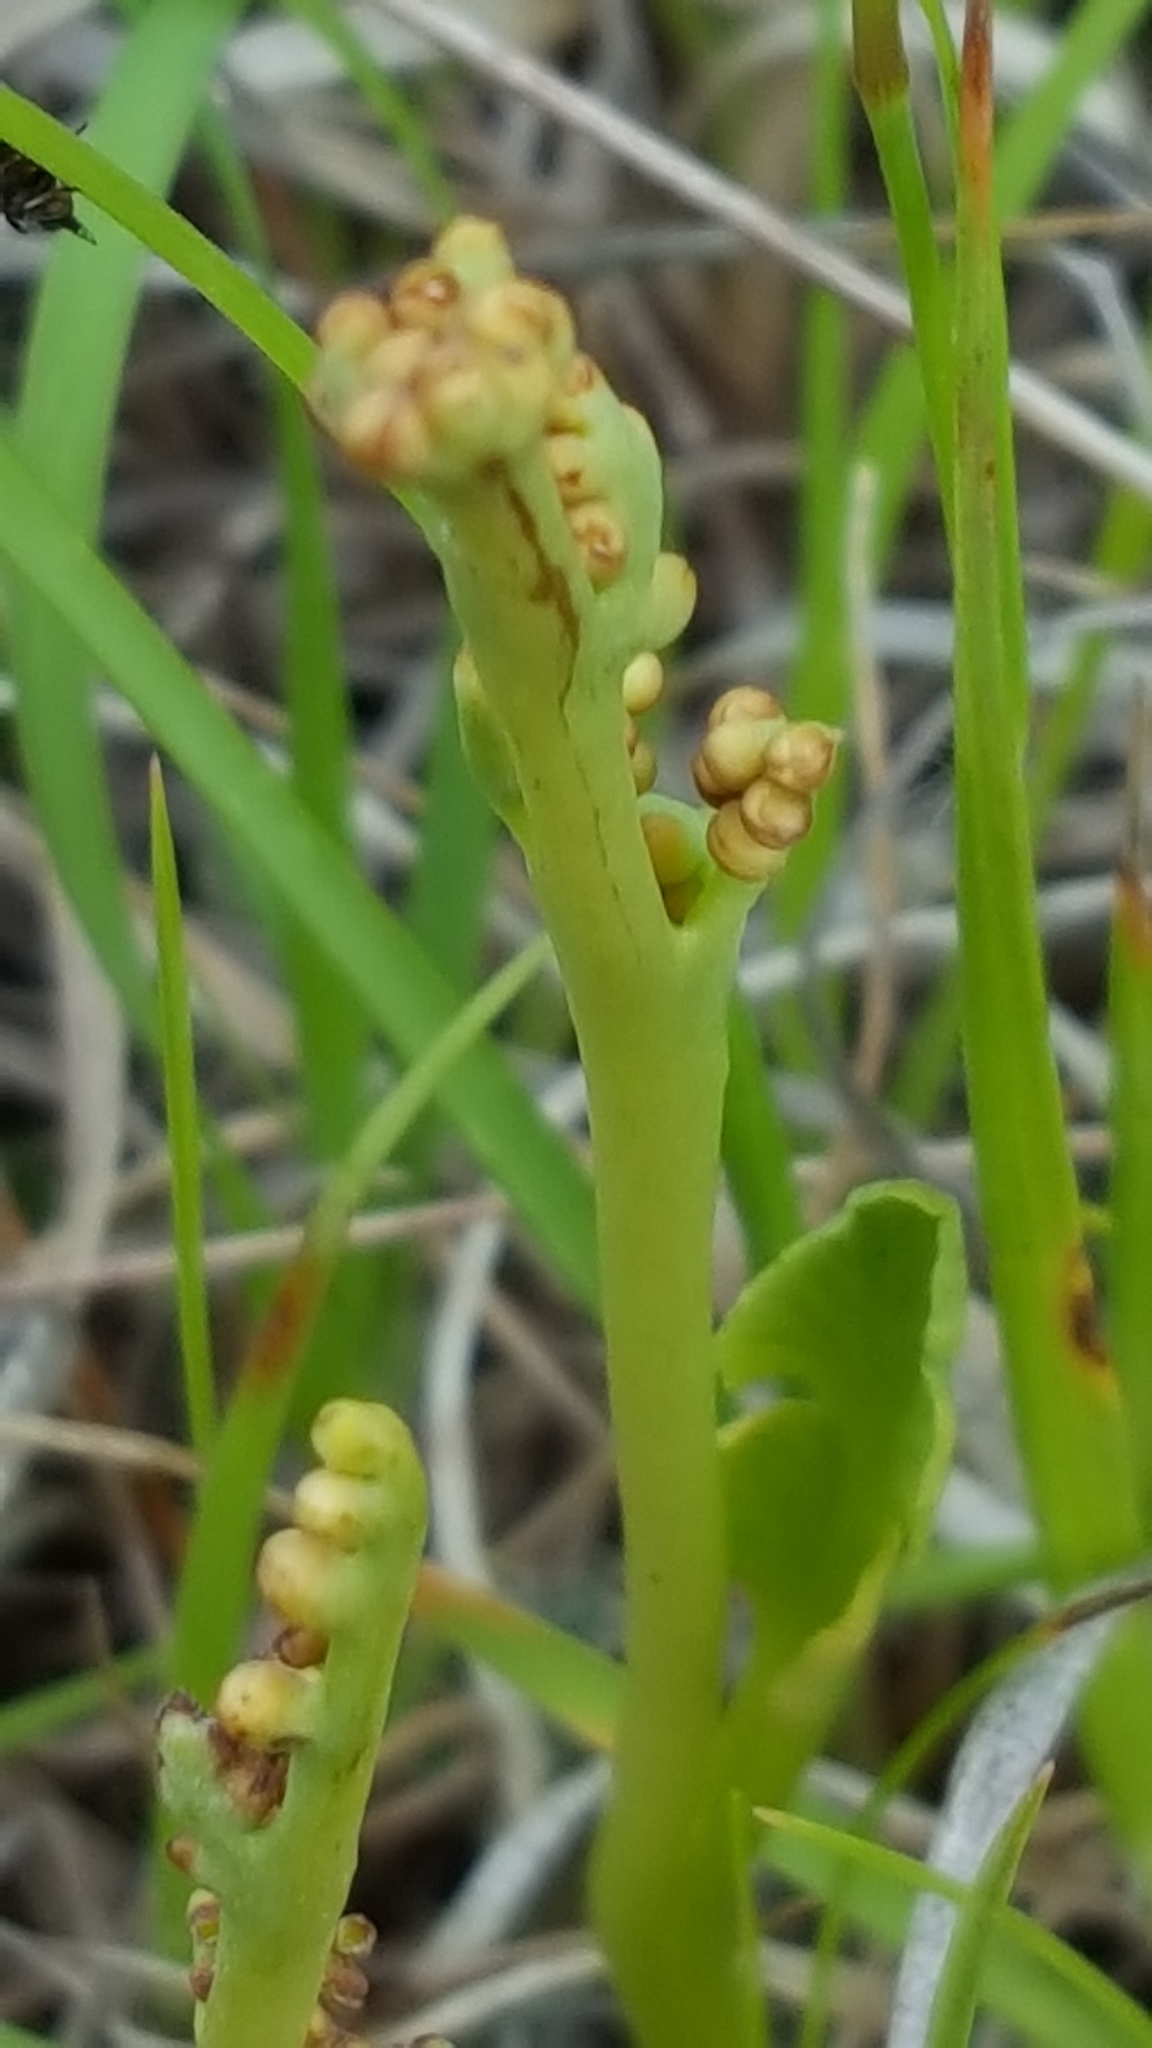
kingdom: Plantae
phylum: Tracheophyta
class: Polypodiopsida
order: Ophioglossales
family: Ophioglossaceae
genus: Botrychium
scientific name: Botrychium simplex
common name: Least moonwort
